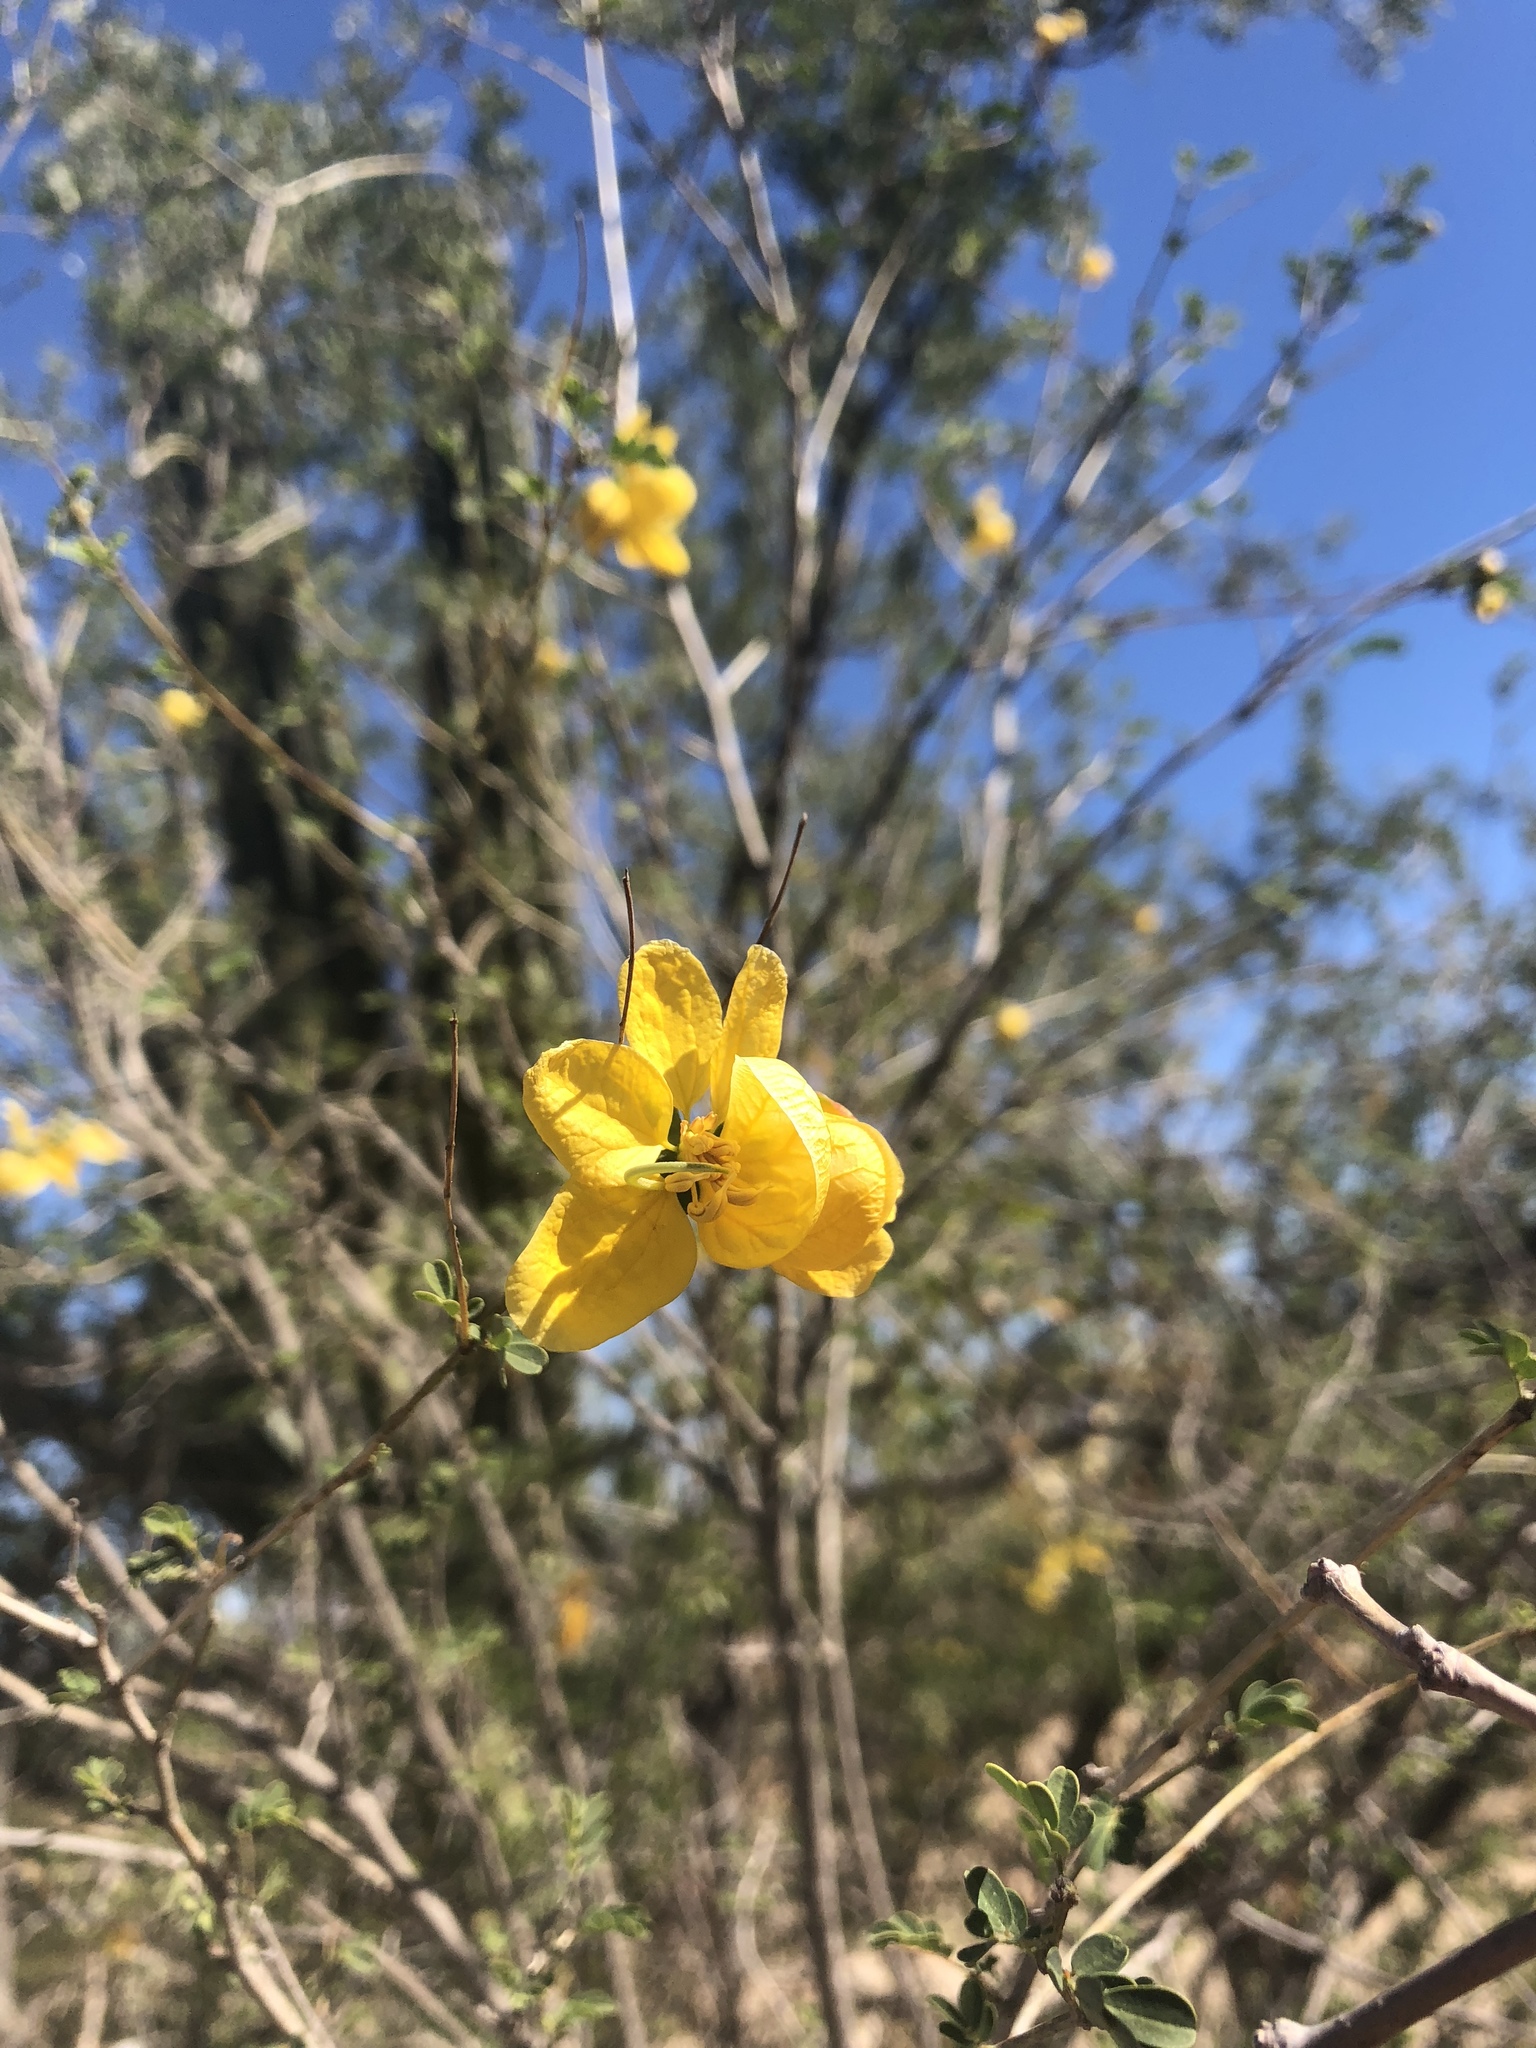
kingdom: Plantae
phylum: Tracheophyta
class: Magnoliopsida
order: Fabales
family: Fabaceae
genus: Senna
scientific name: Senna pallida
